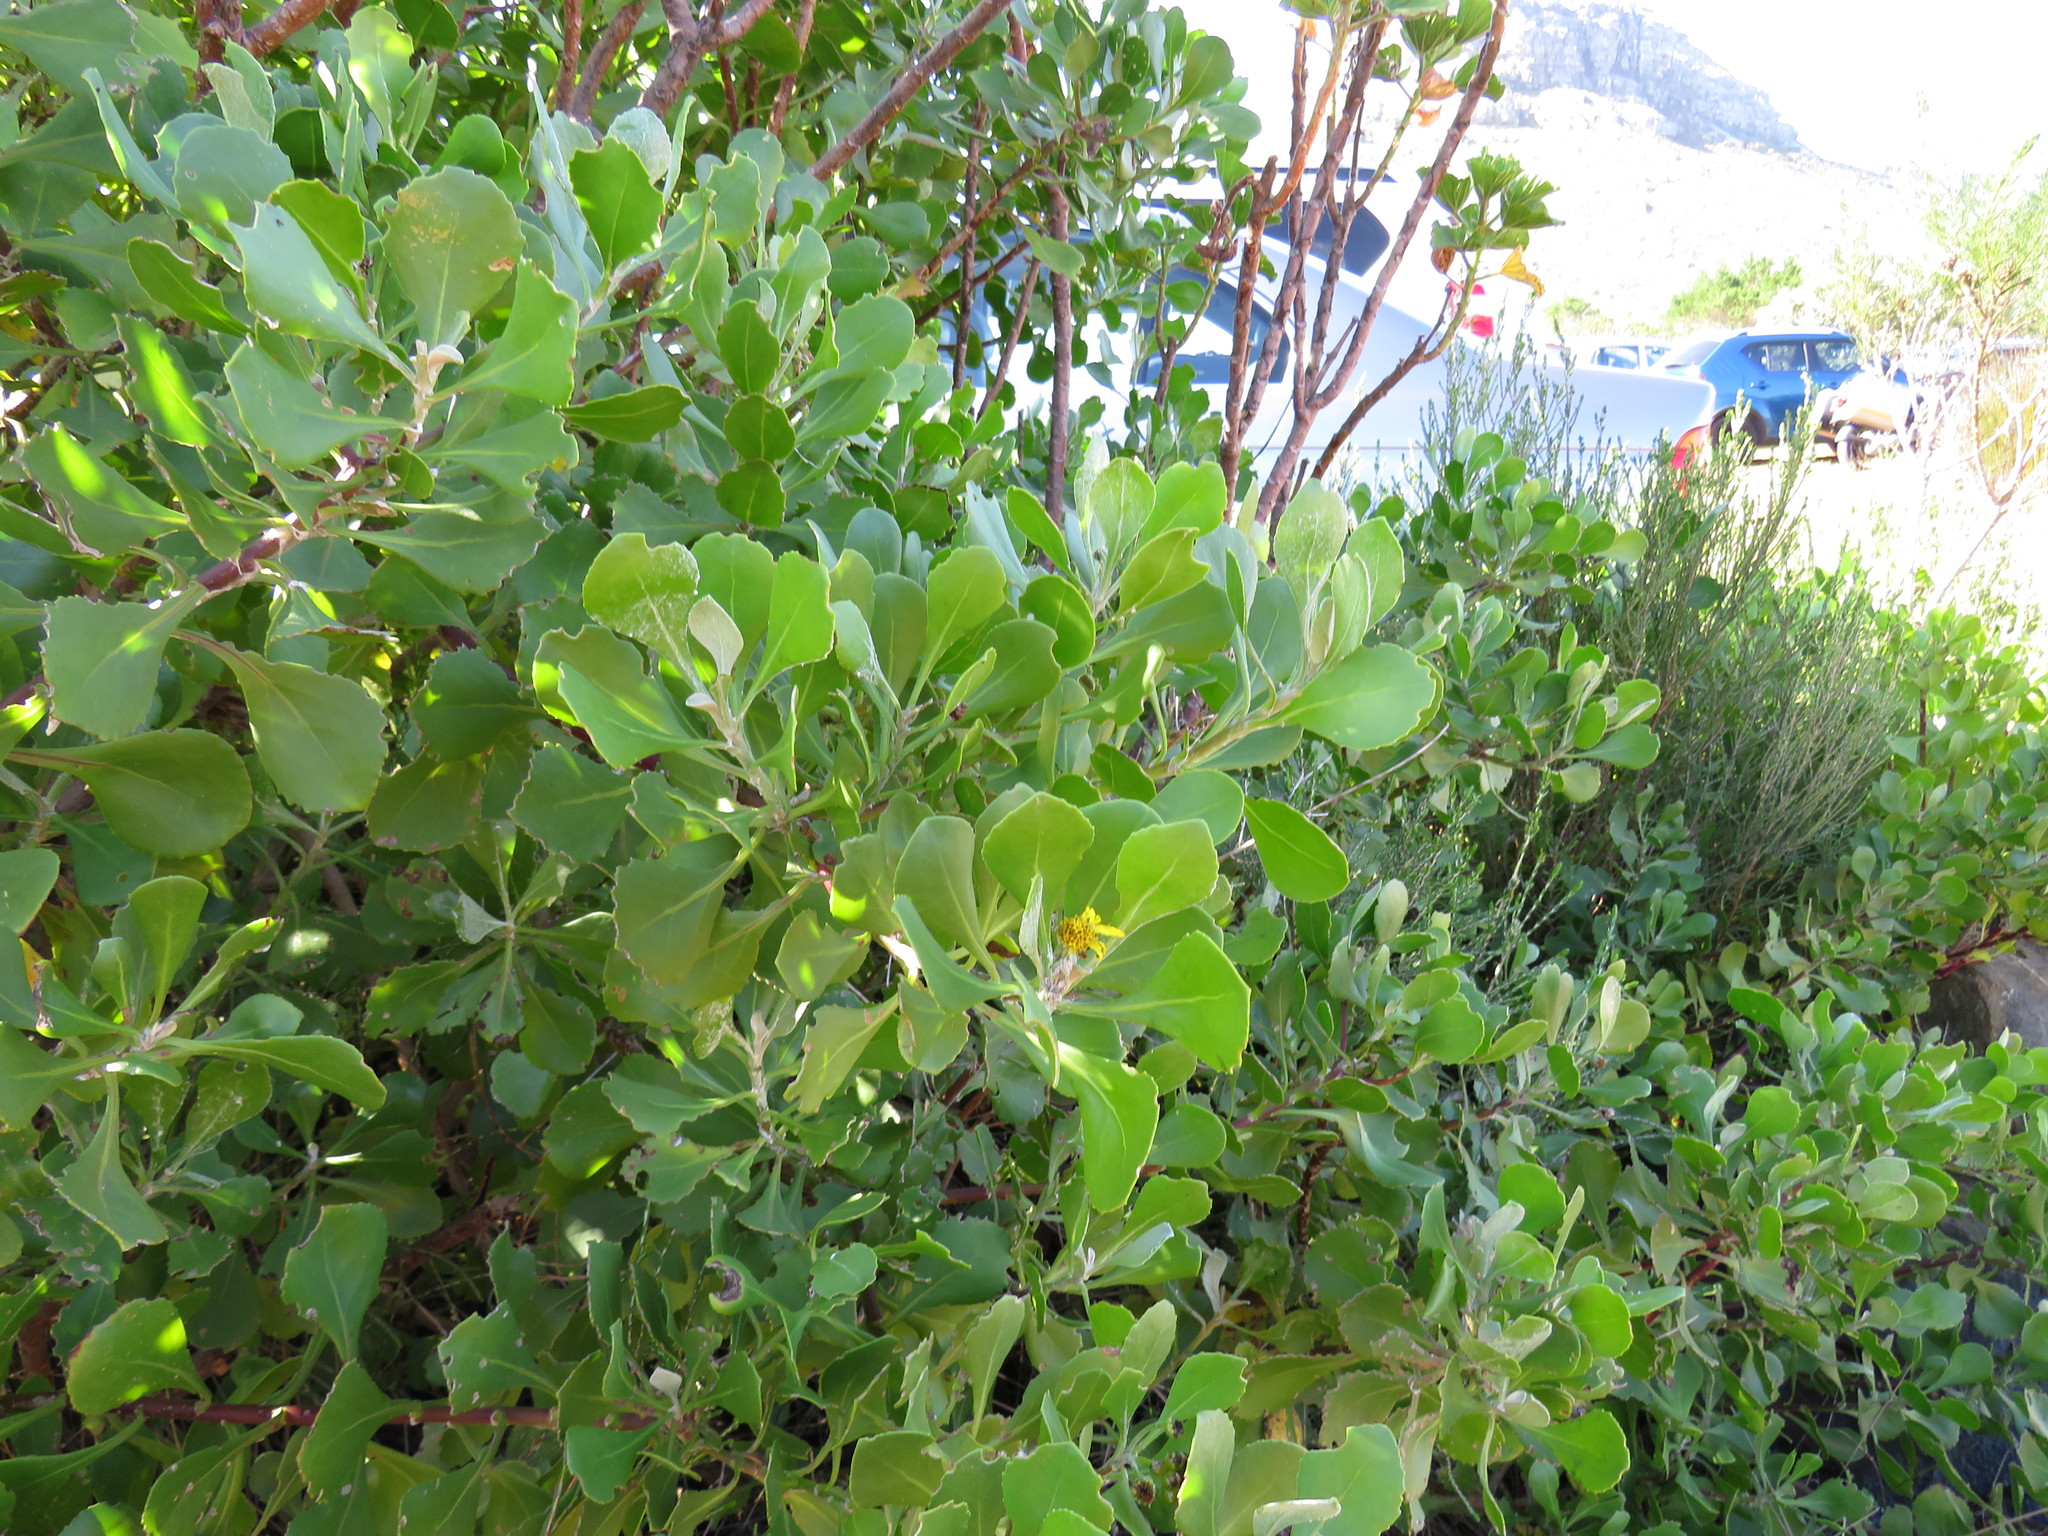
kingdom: Plantae
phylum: Tracheophyta
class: Magnoliopsida
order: Asterales
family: Asteraceae
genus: Osteospermum
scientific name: Osteospermum moniliferum
